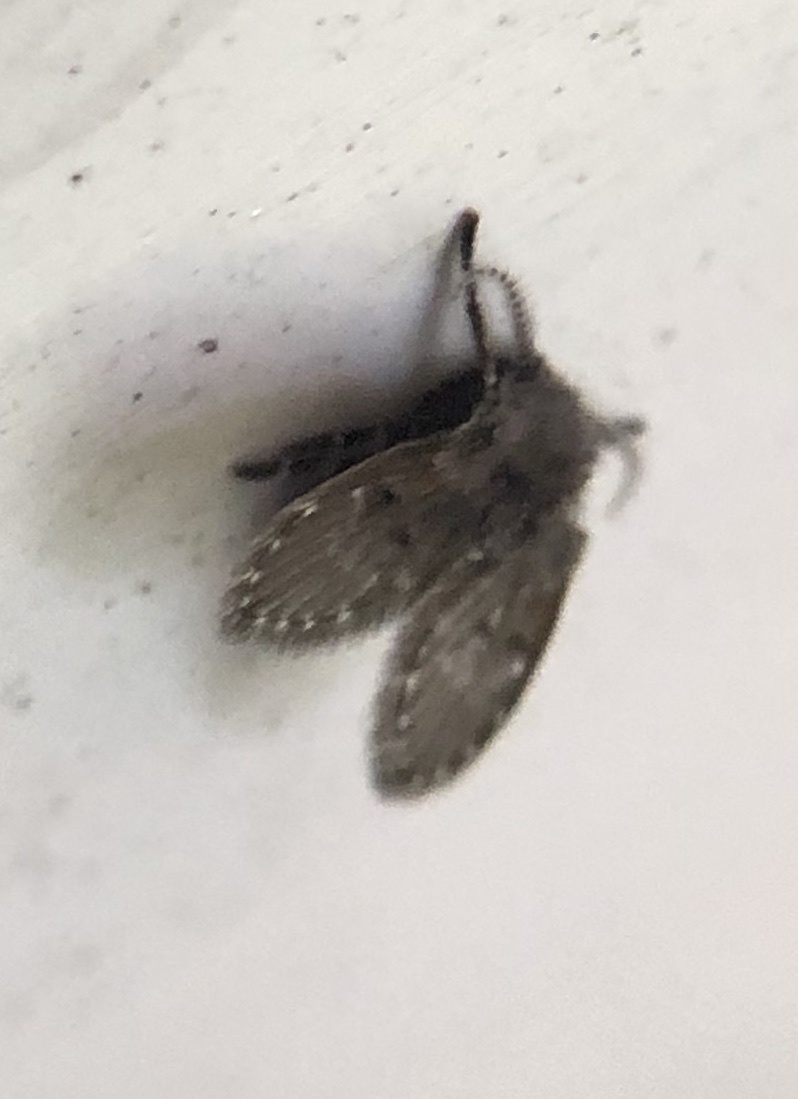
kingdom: Animalia
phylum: Arthropoda
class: Insecta
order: Diptera
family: Psychodidae
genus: Clogmia
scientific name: Clogmia albipunctatus
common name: White-spotted moth fly
